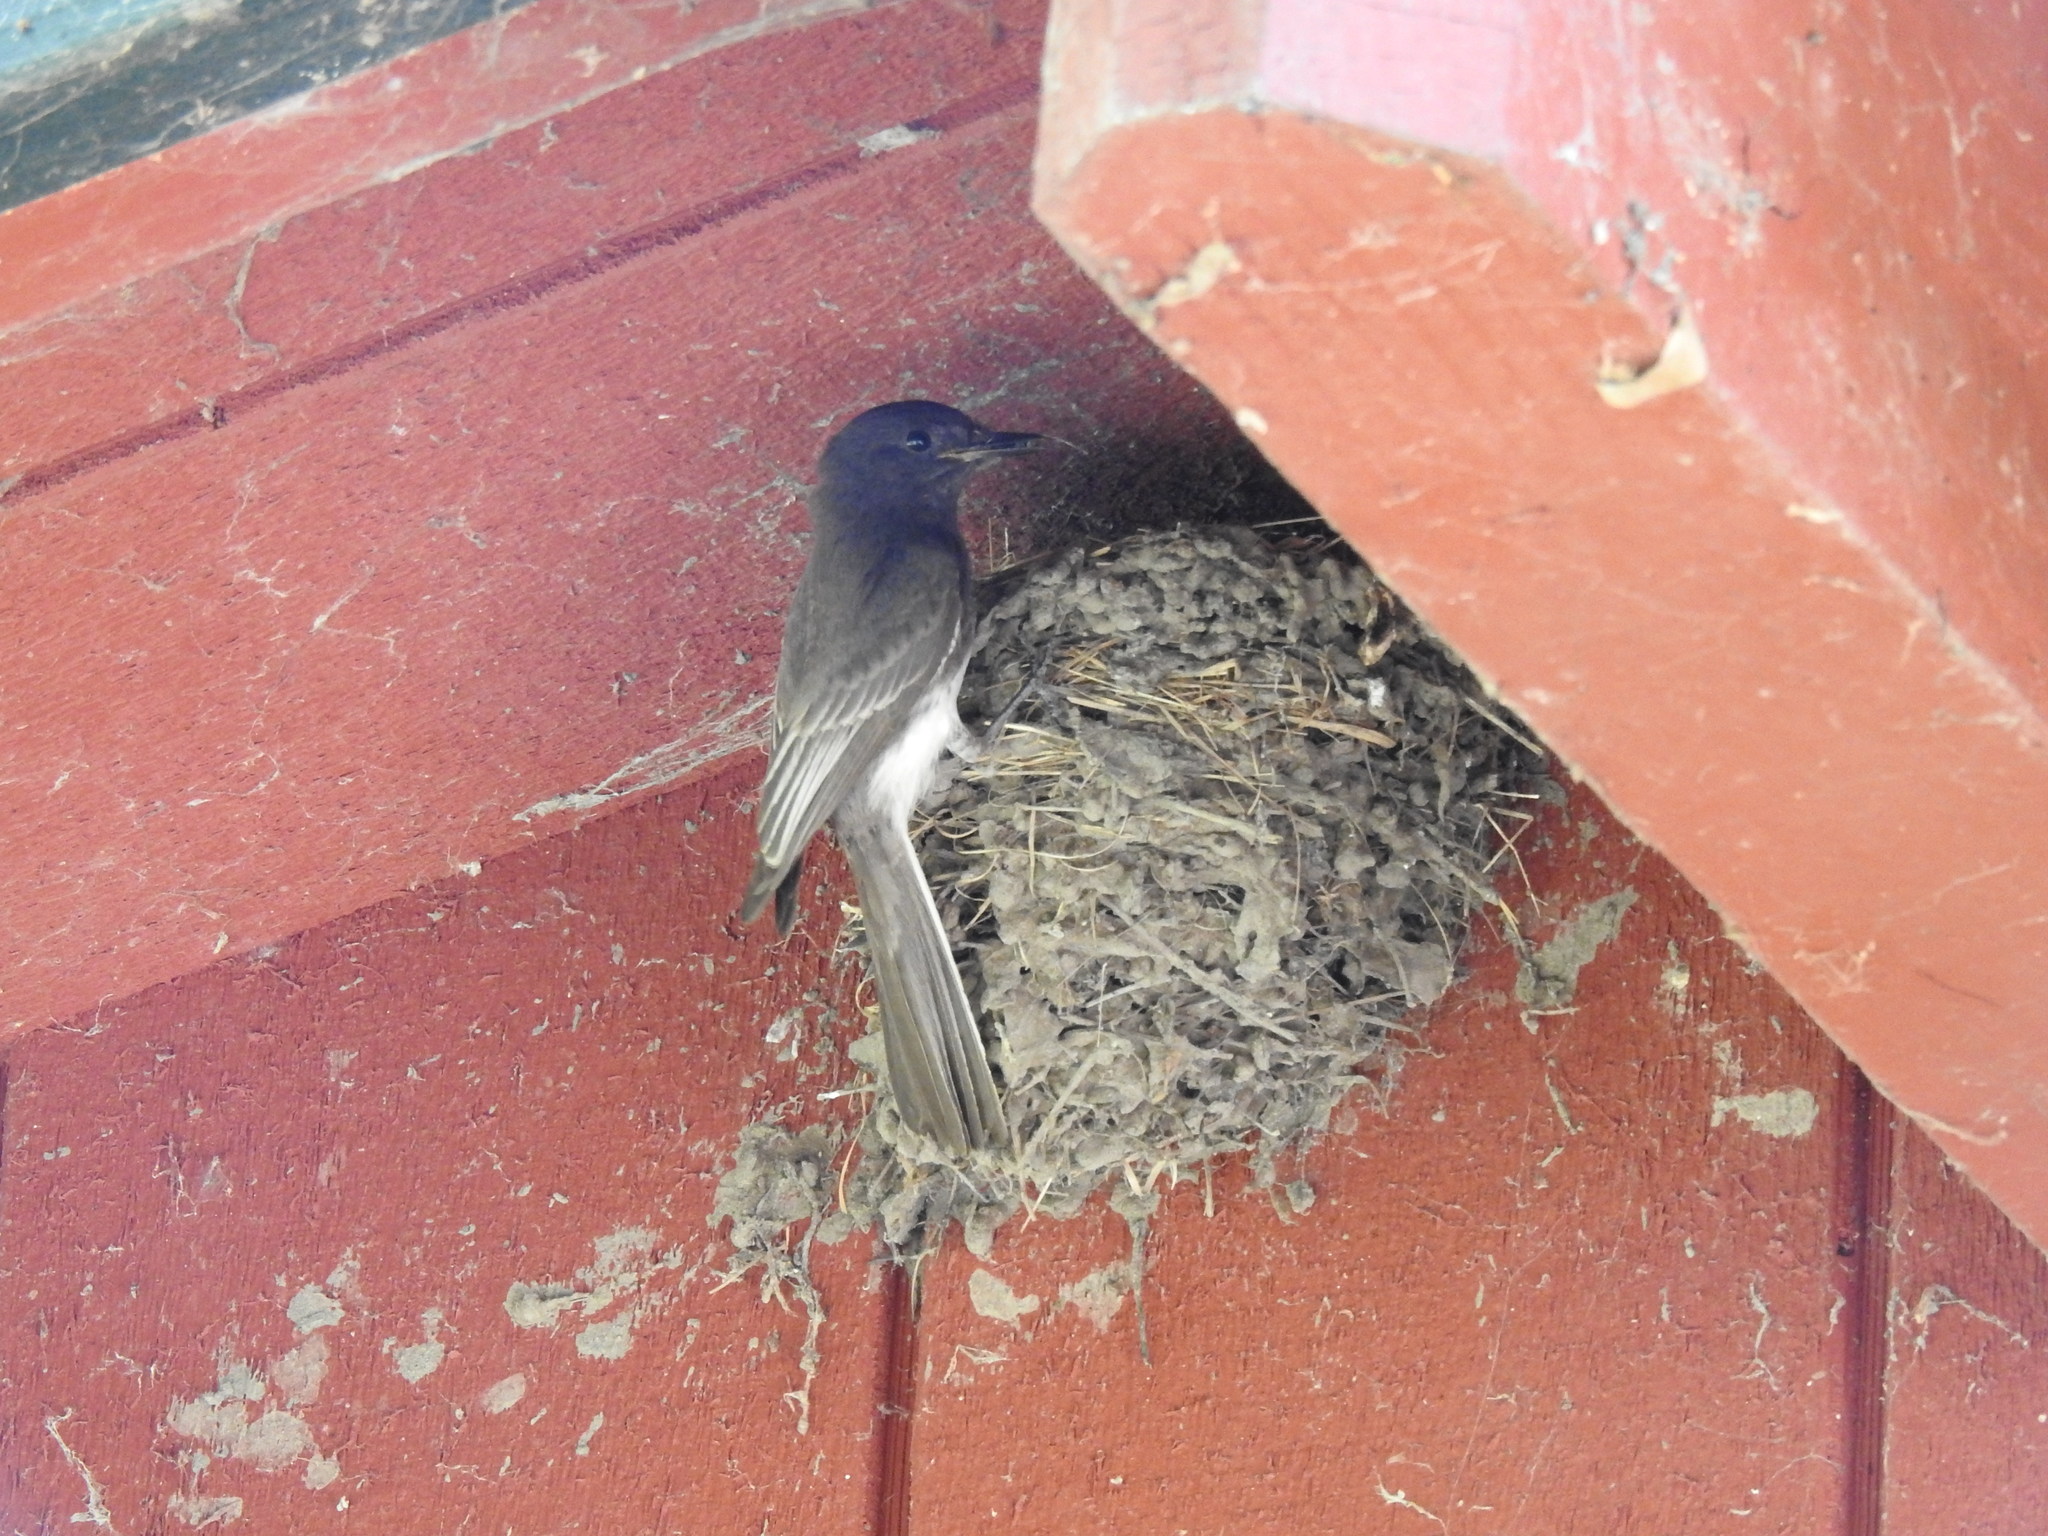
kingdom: Animalia
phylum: Chordata
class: Aves
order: Passeriformes
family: Tyrannidae
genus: Sayornis
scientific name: Sayornis nigricans
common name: Black phoebe
